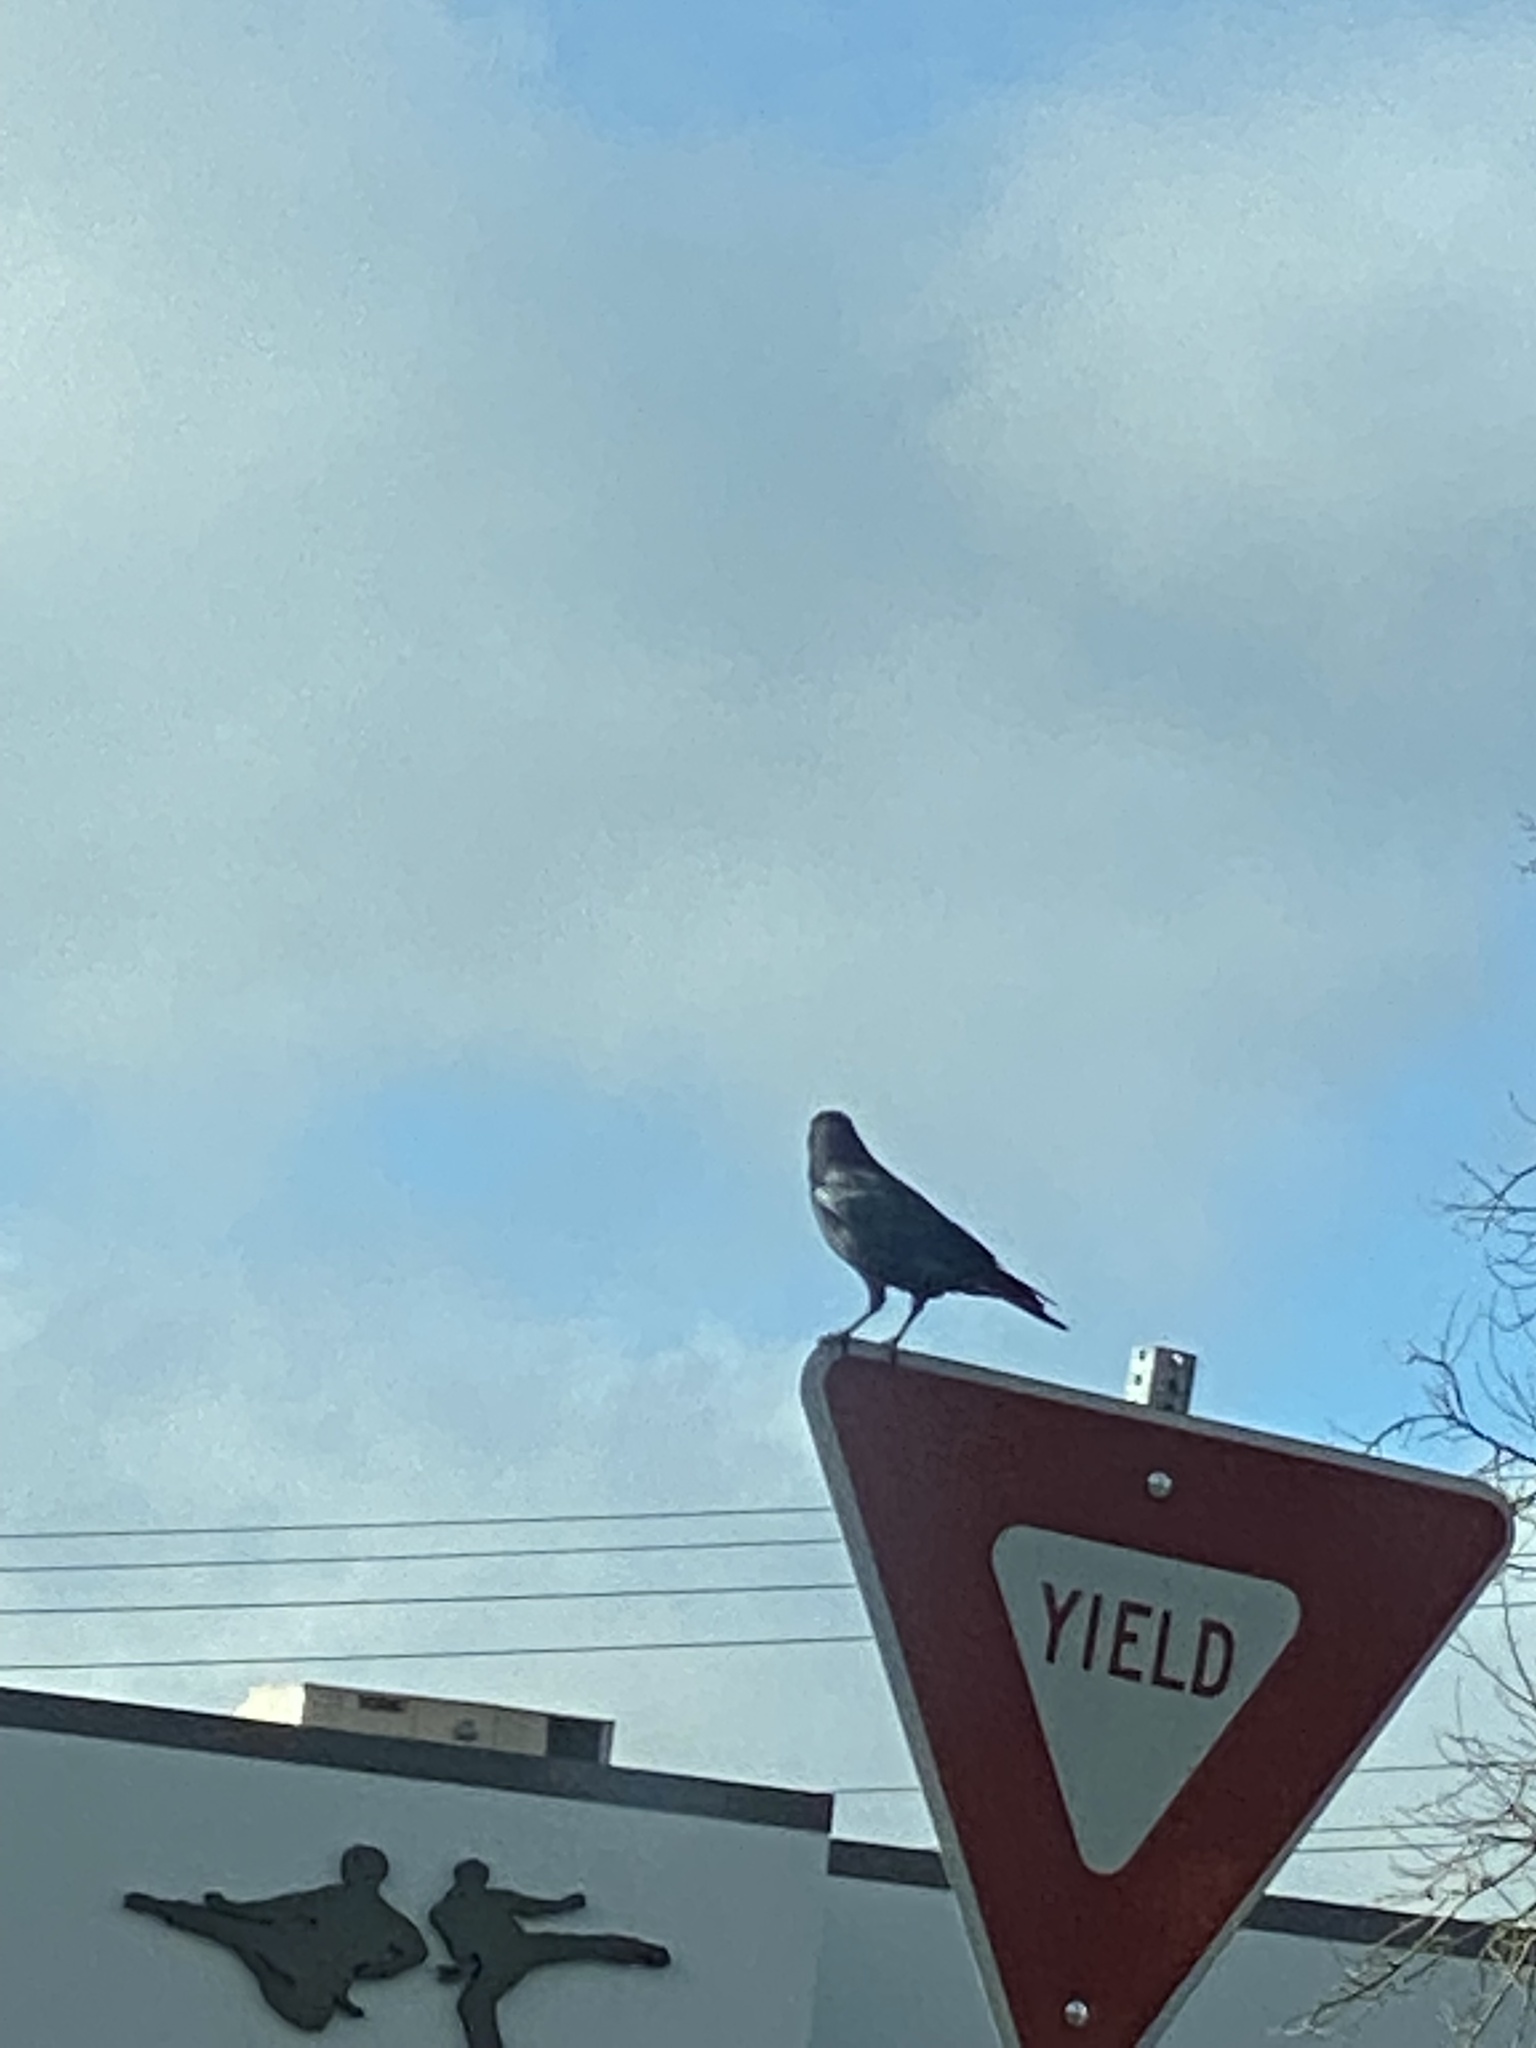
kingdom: Animalia
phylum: Chordata
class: Aves
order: Passeriformes
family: Corvidae
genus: Corvus
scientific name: Corvus brachyrhynchos
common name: American crow
